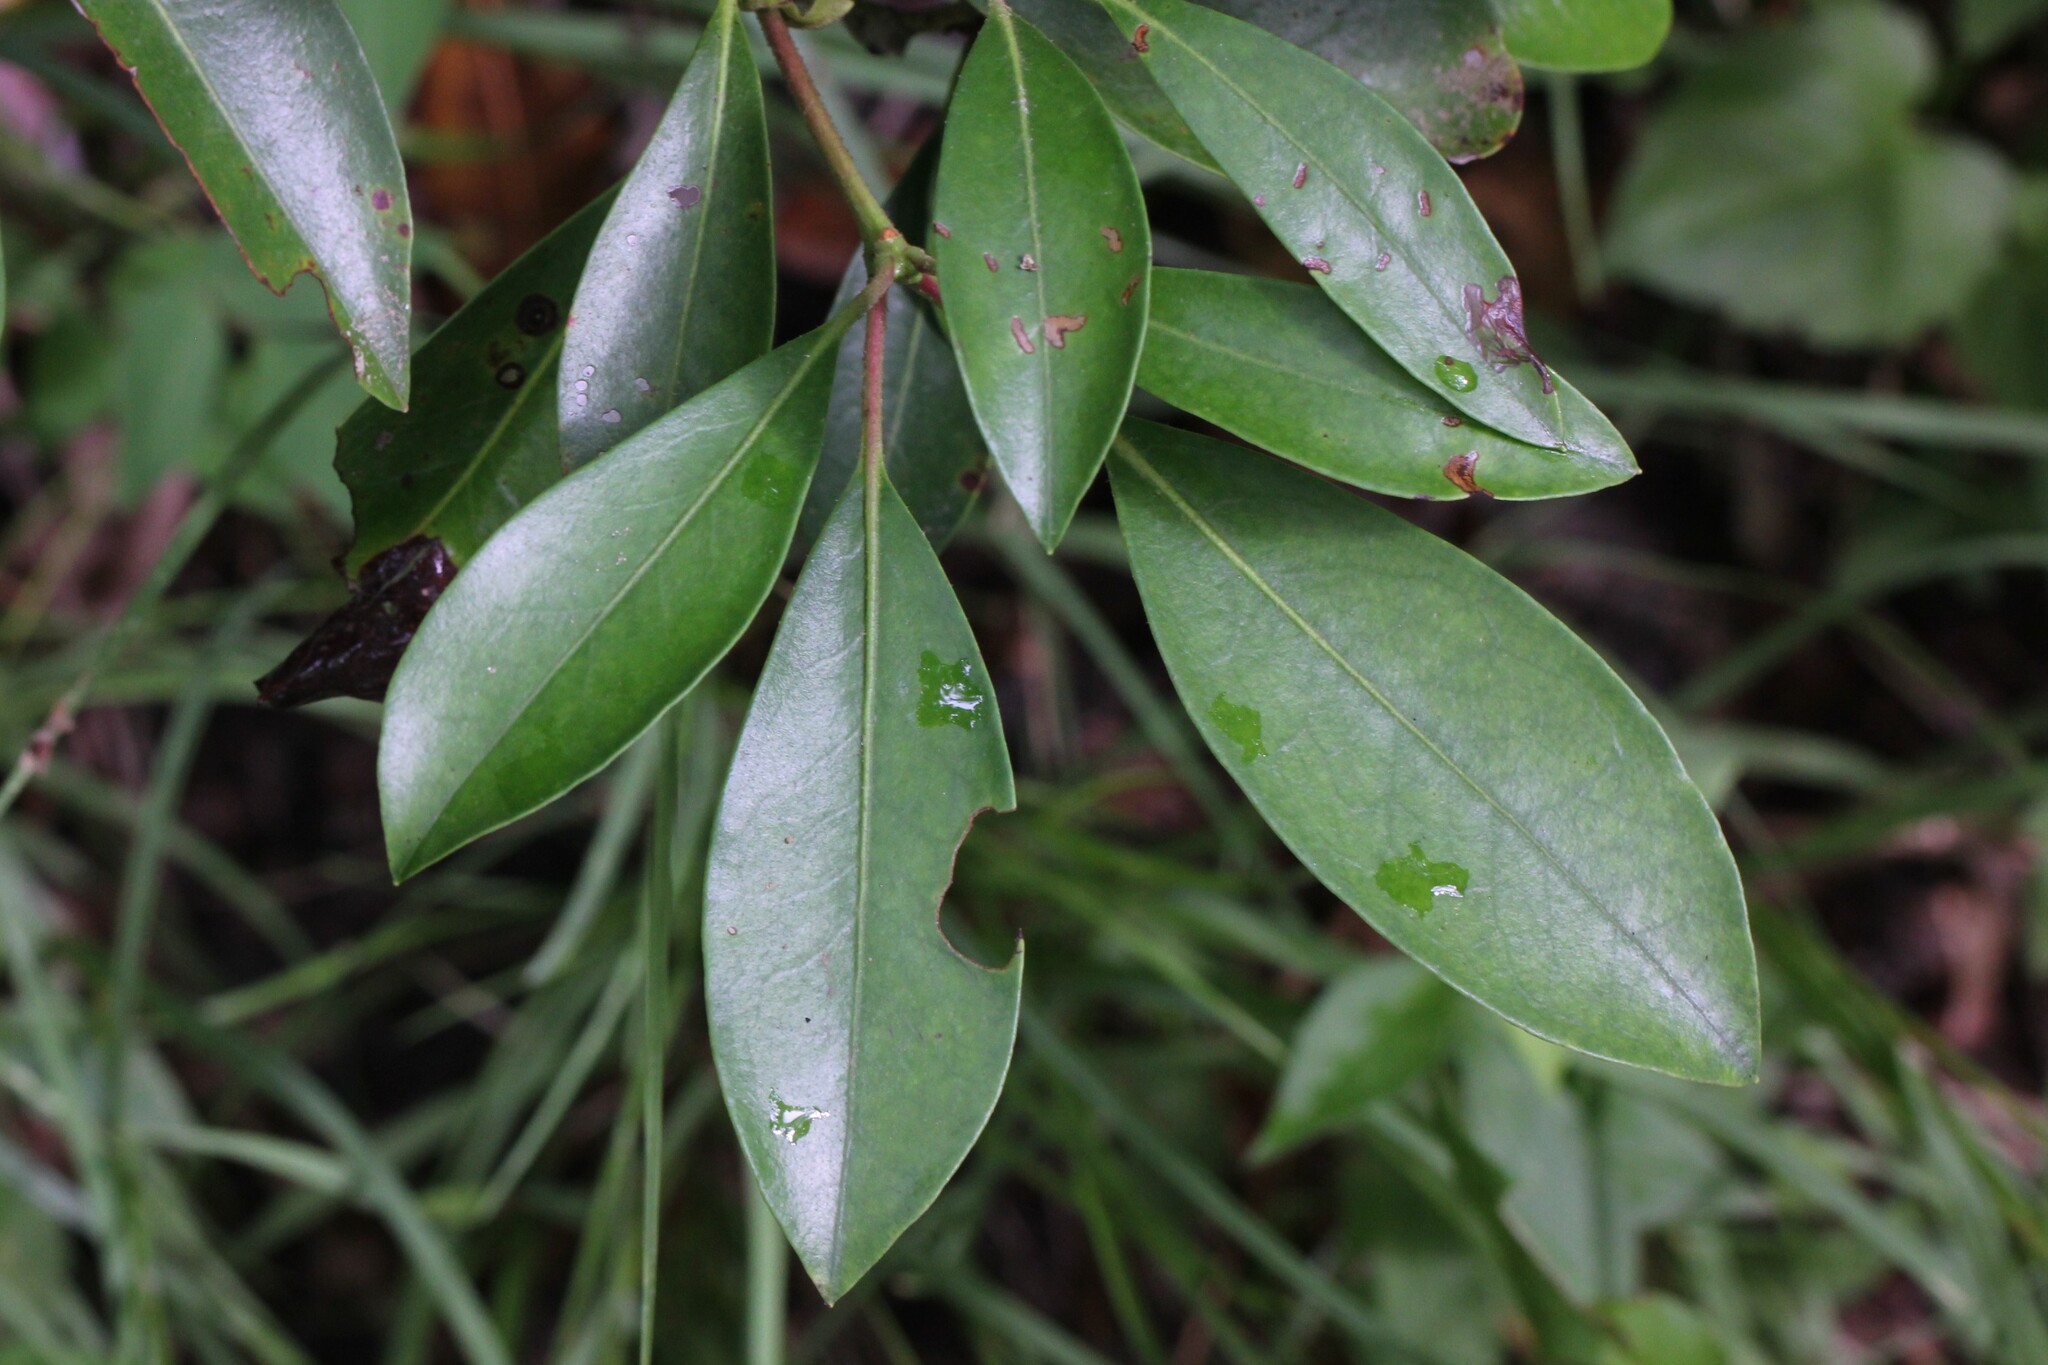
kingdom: Plantae
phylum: Tracheophyta
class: Magnoliopsida
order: Ericales
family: Ericaceae
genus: Kalmia
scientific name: Kalmia latifolia
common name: Mountain-laurel
